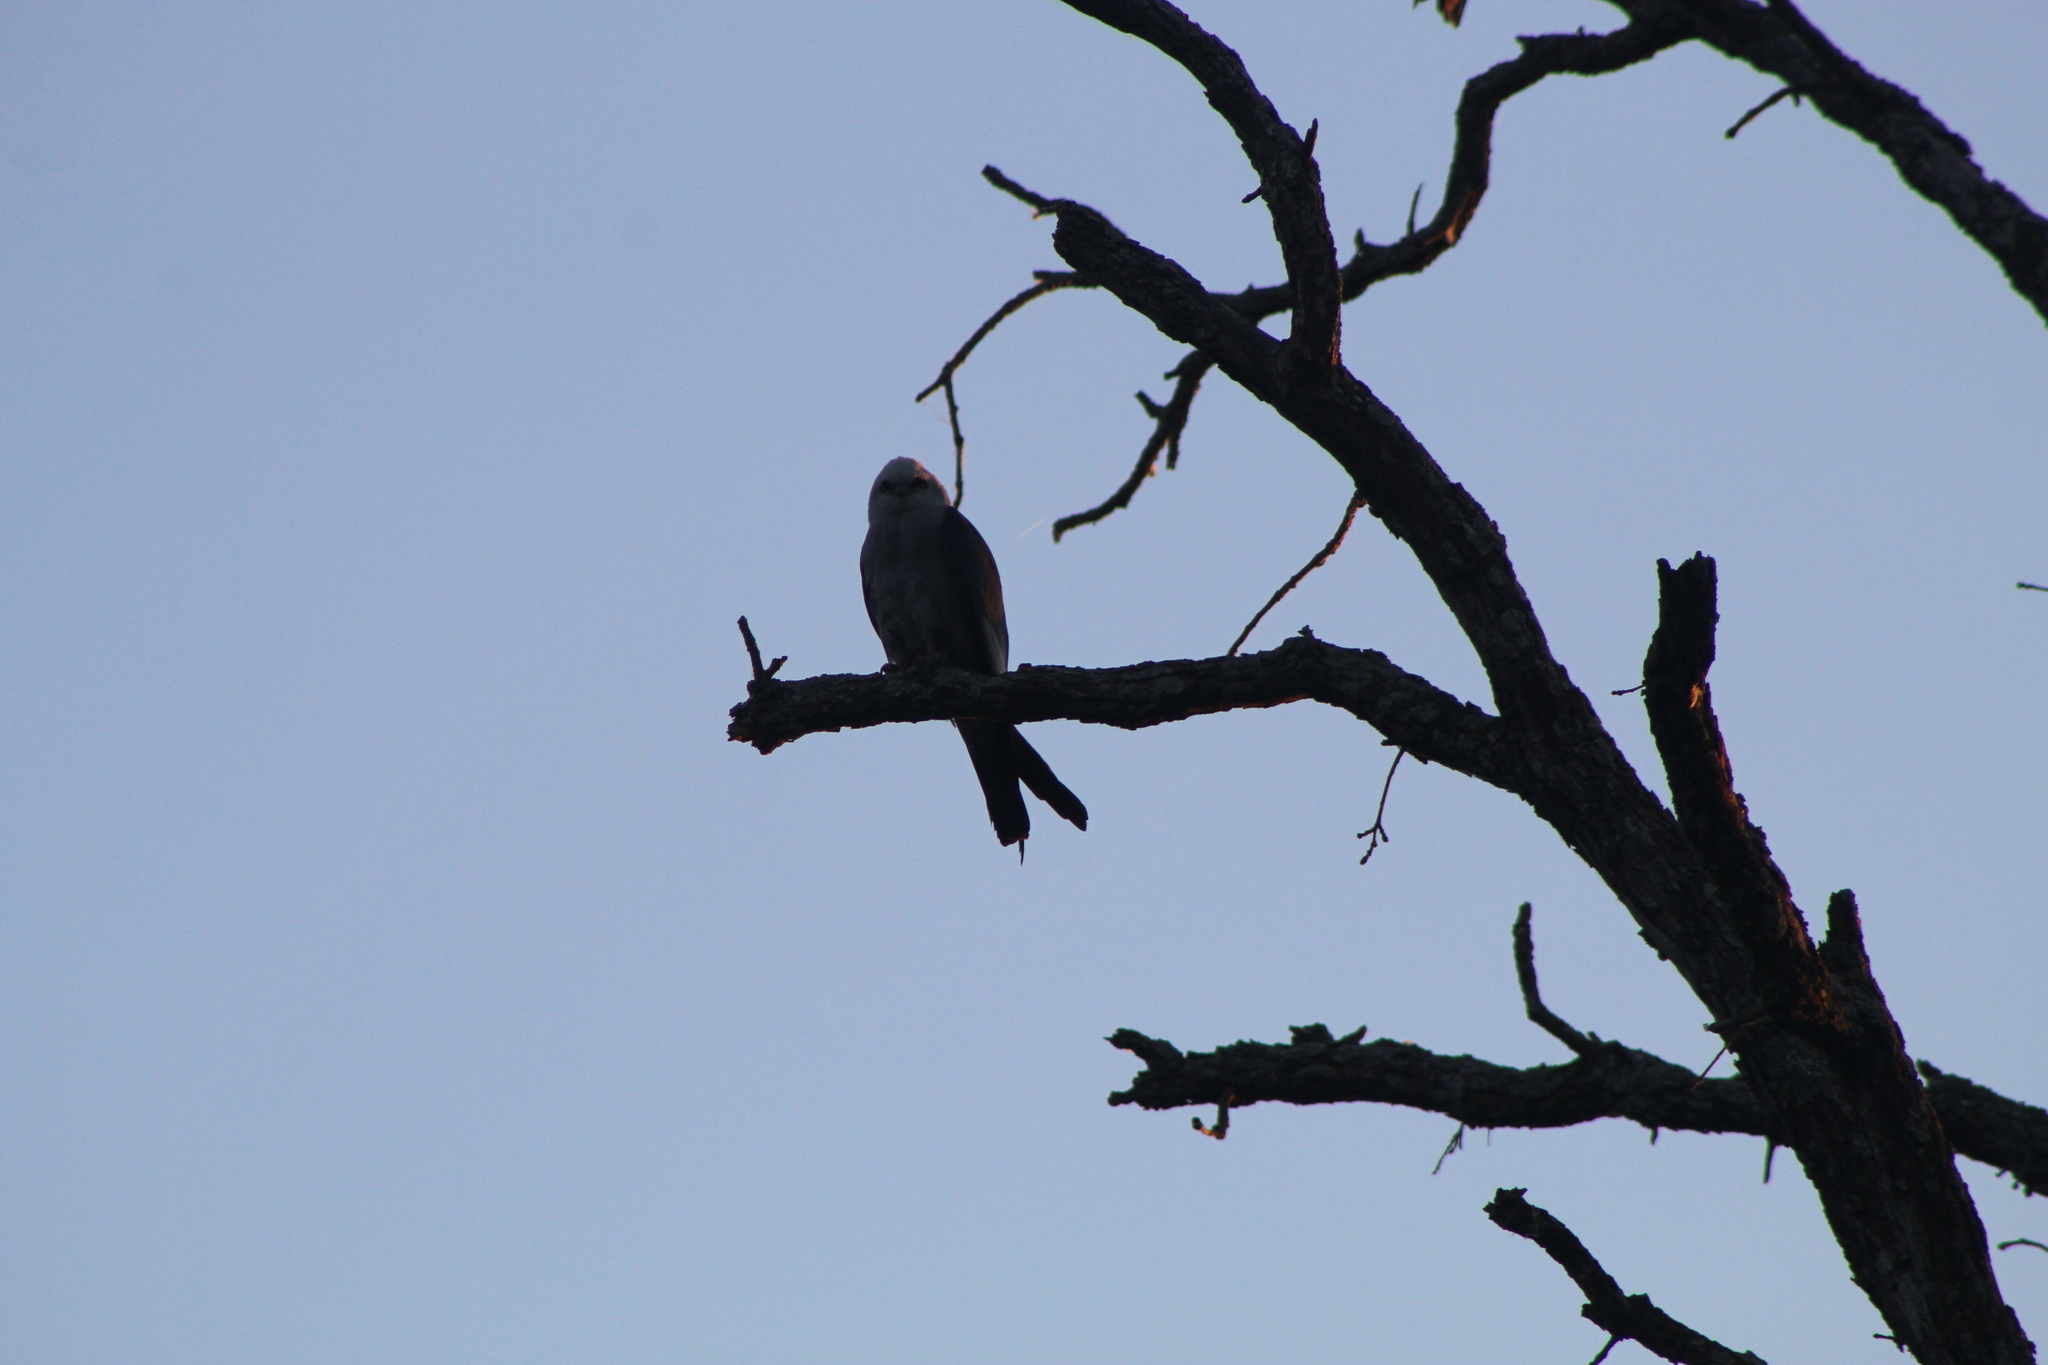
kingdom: Animalia
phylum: Chordata
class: Aves
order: Accipitriformes
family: Accipitridae
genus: Ictinia
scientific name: Ictinia mississippiensis
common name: Mississippi kite
